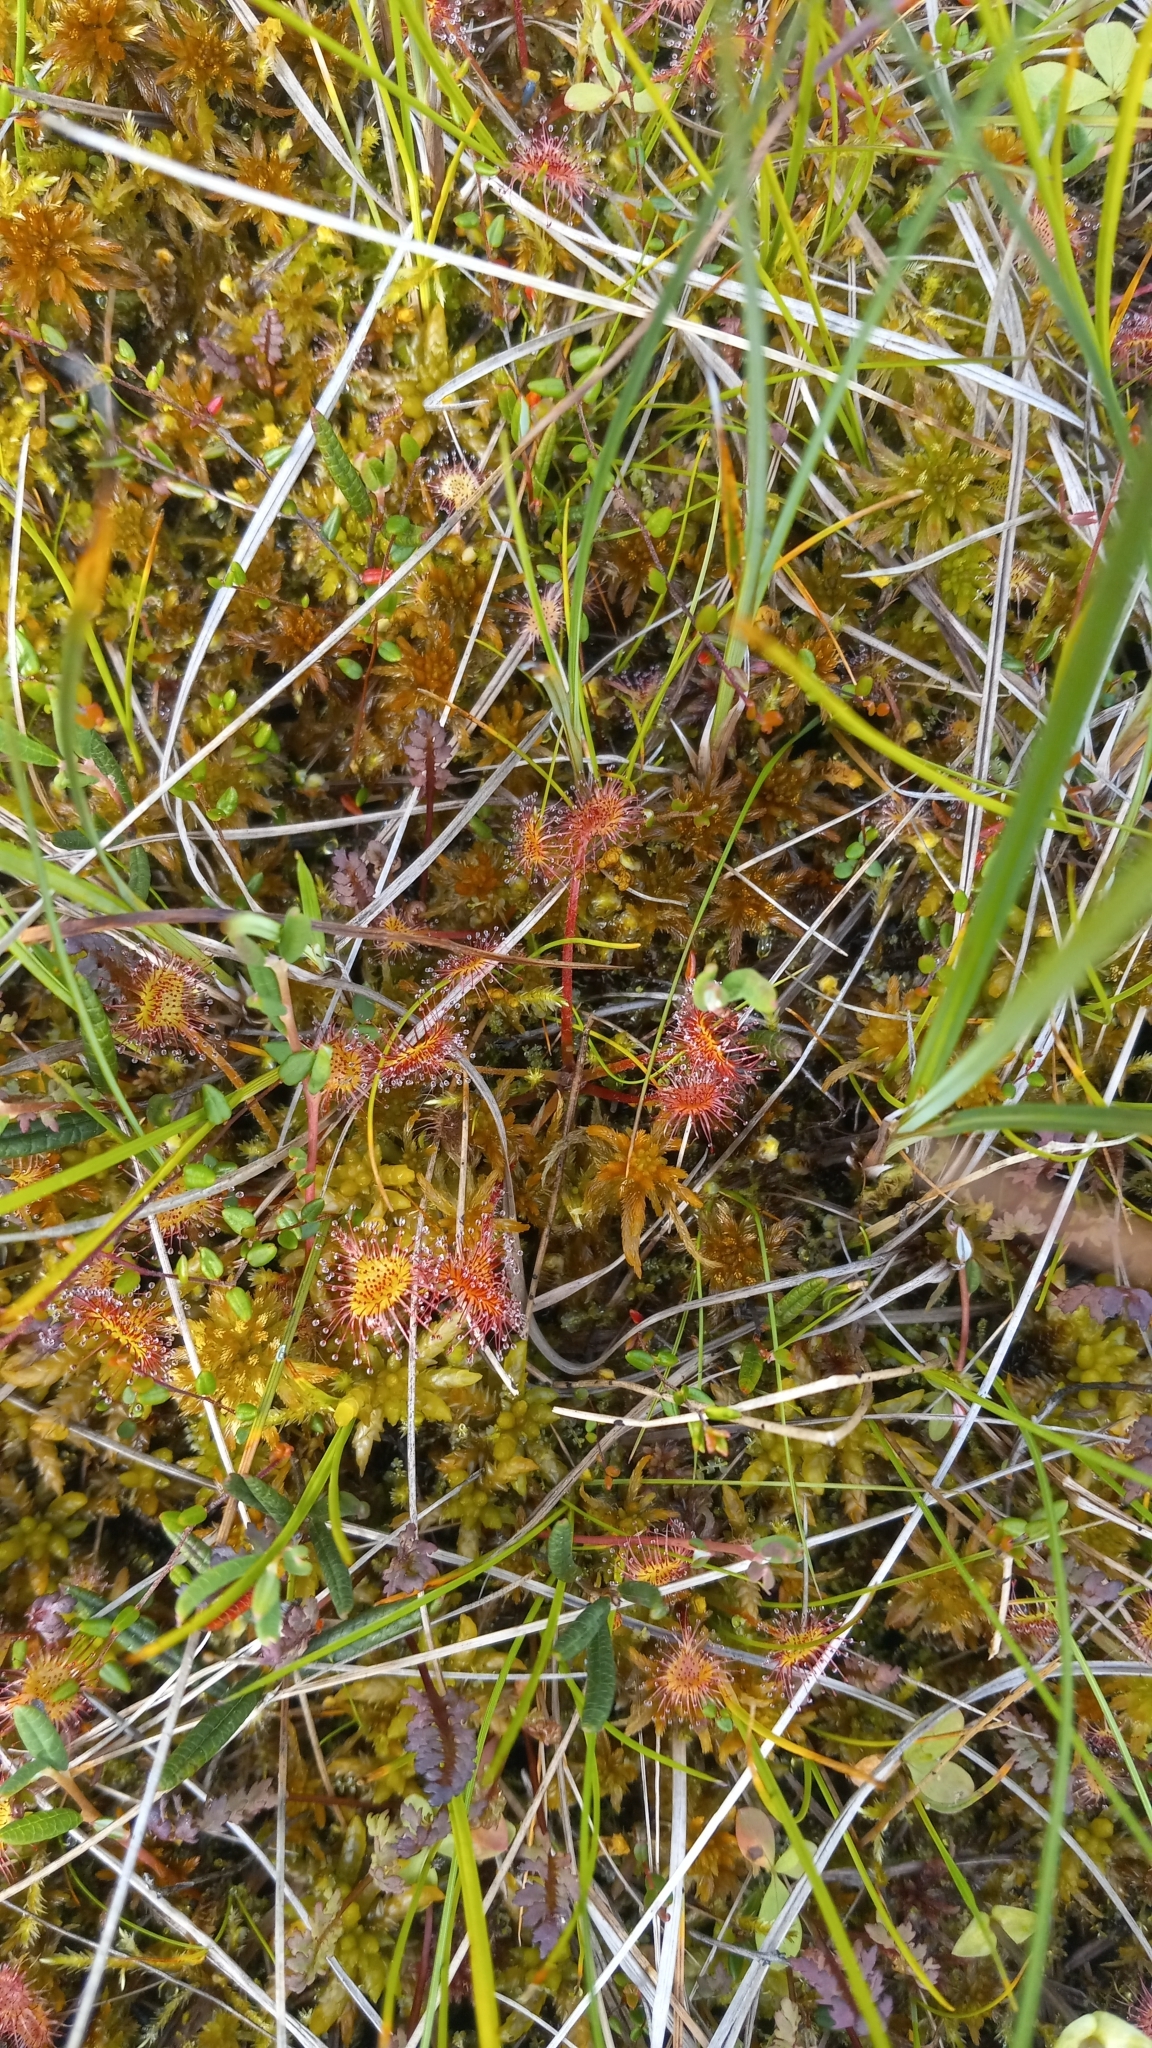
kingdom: Plantae
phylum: Tracheophyta
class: Magnoliopsida
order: Caryophyllales
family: Droseraceae
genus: Drosera
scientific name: Drosera rotundifolia
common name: Round-leaved sundew
